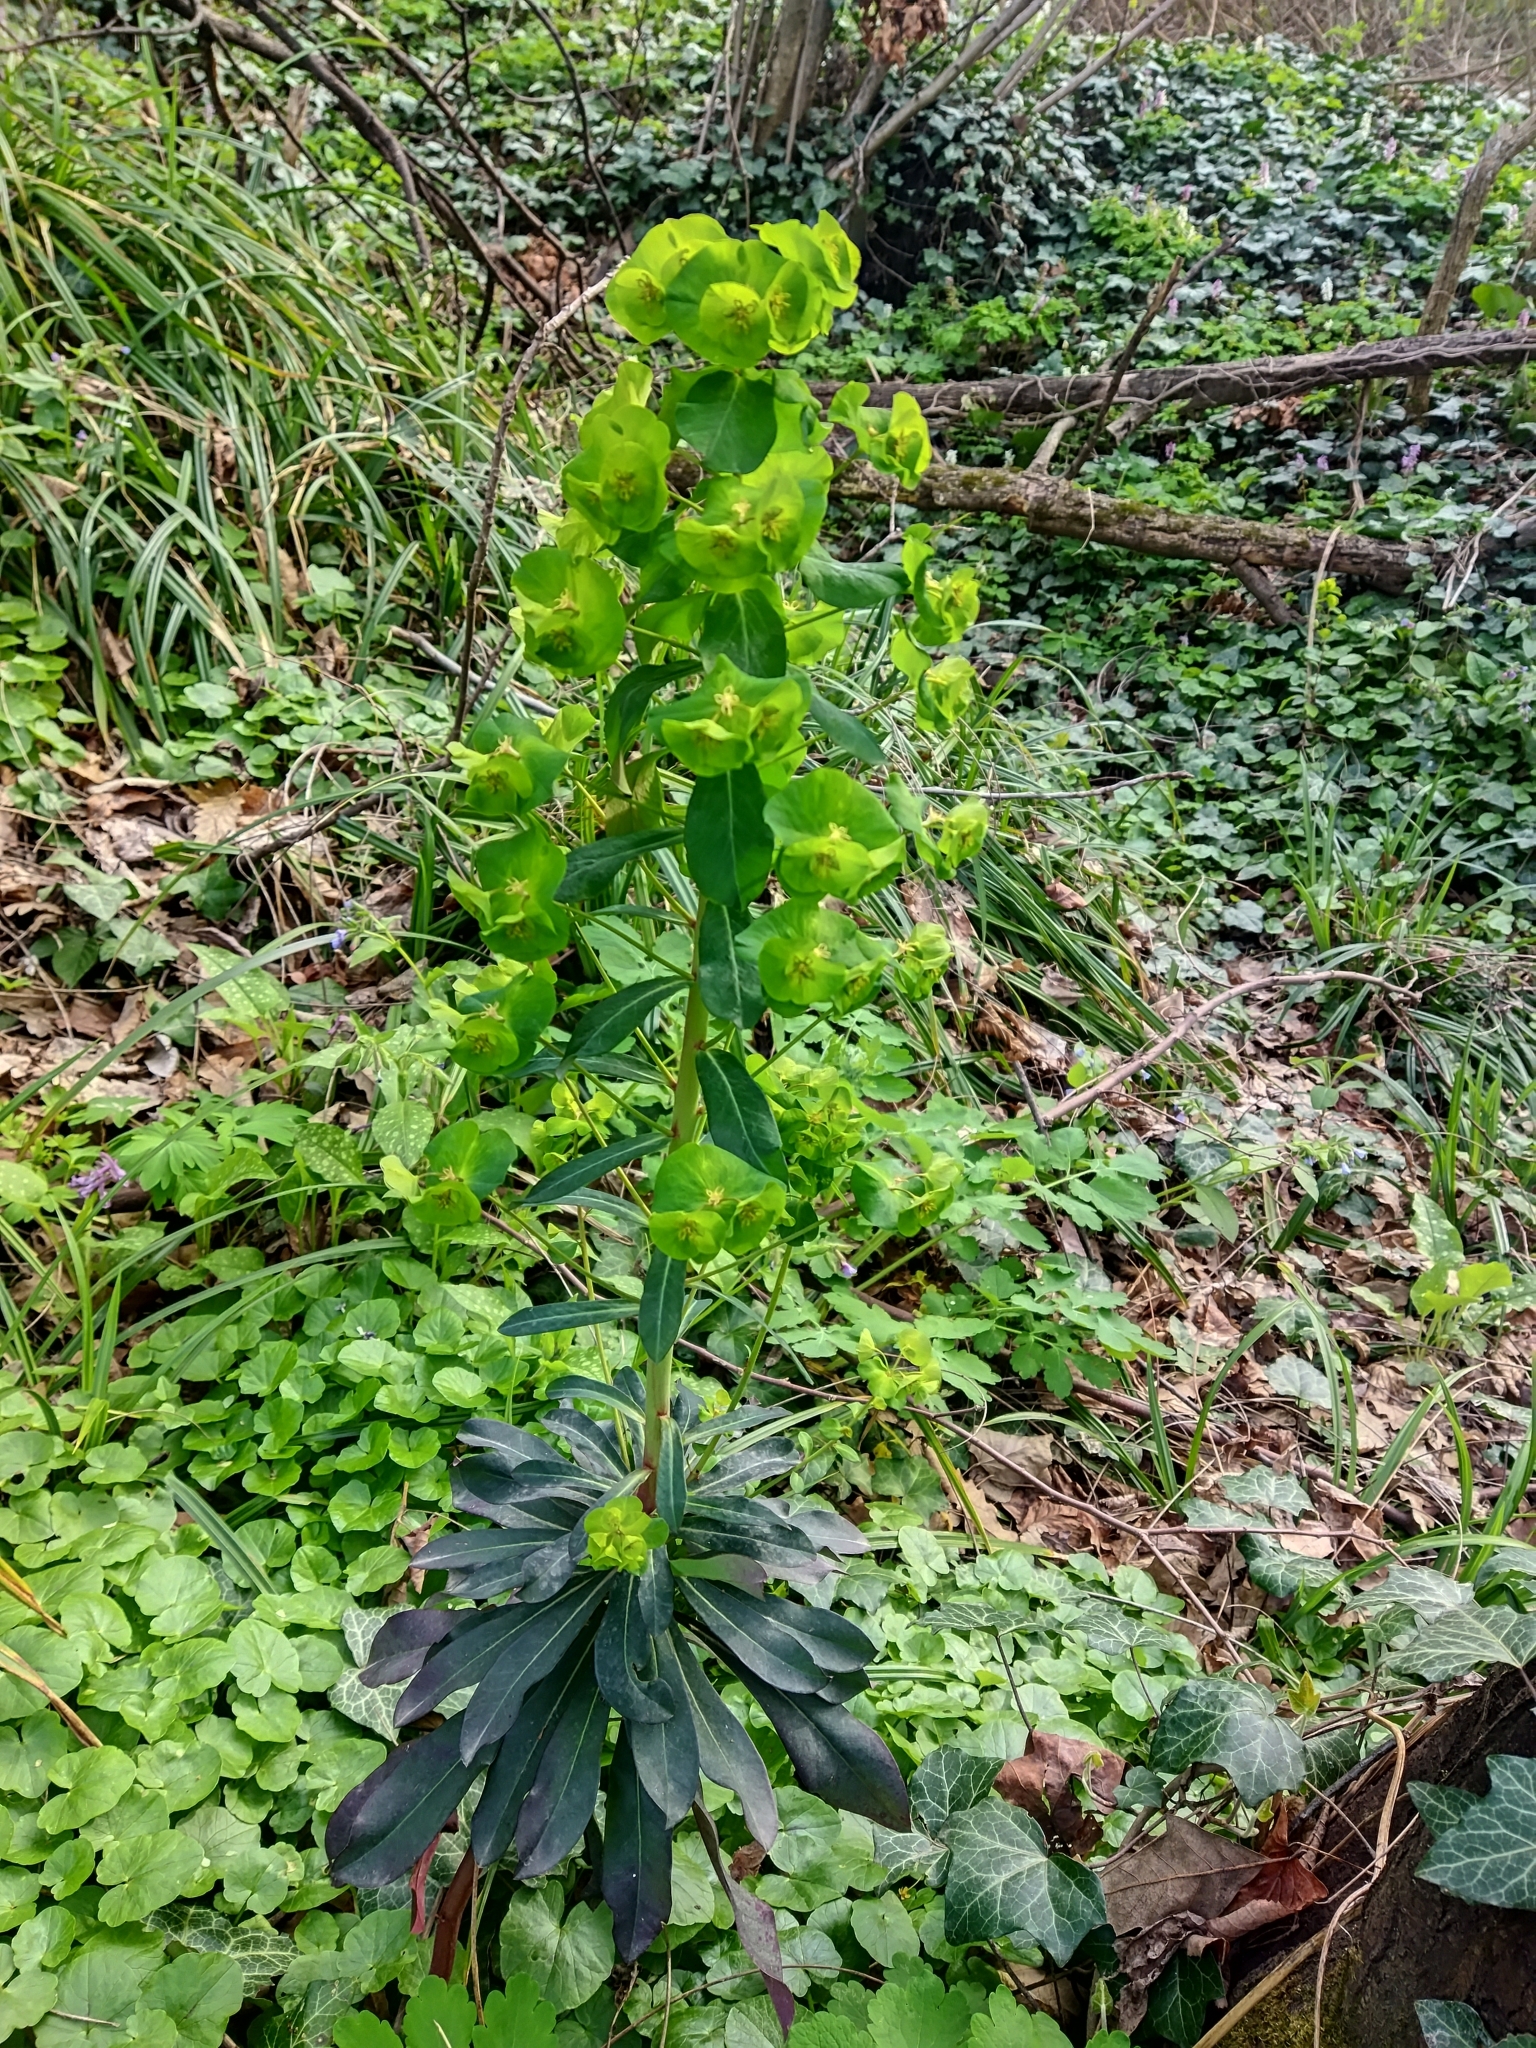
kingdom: Plantae
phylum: Tracheophyta
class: Magnoliopsida
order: Malpighiales
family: Euphorbiaceae
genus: Euphorbia
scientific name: Euphorbia amygdaloides
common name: Wood spurge
